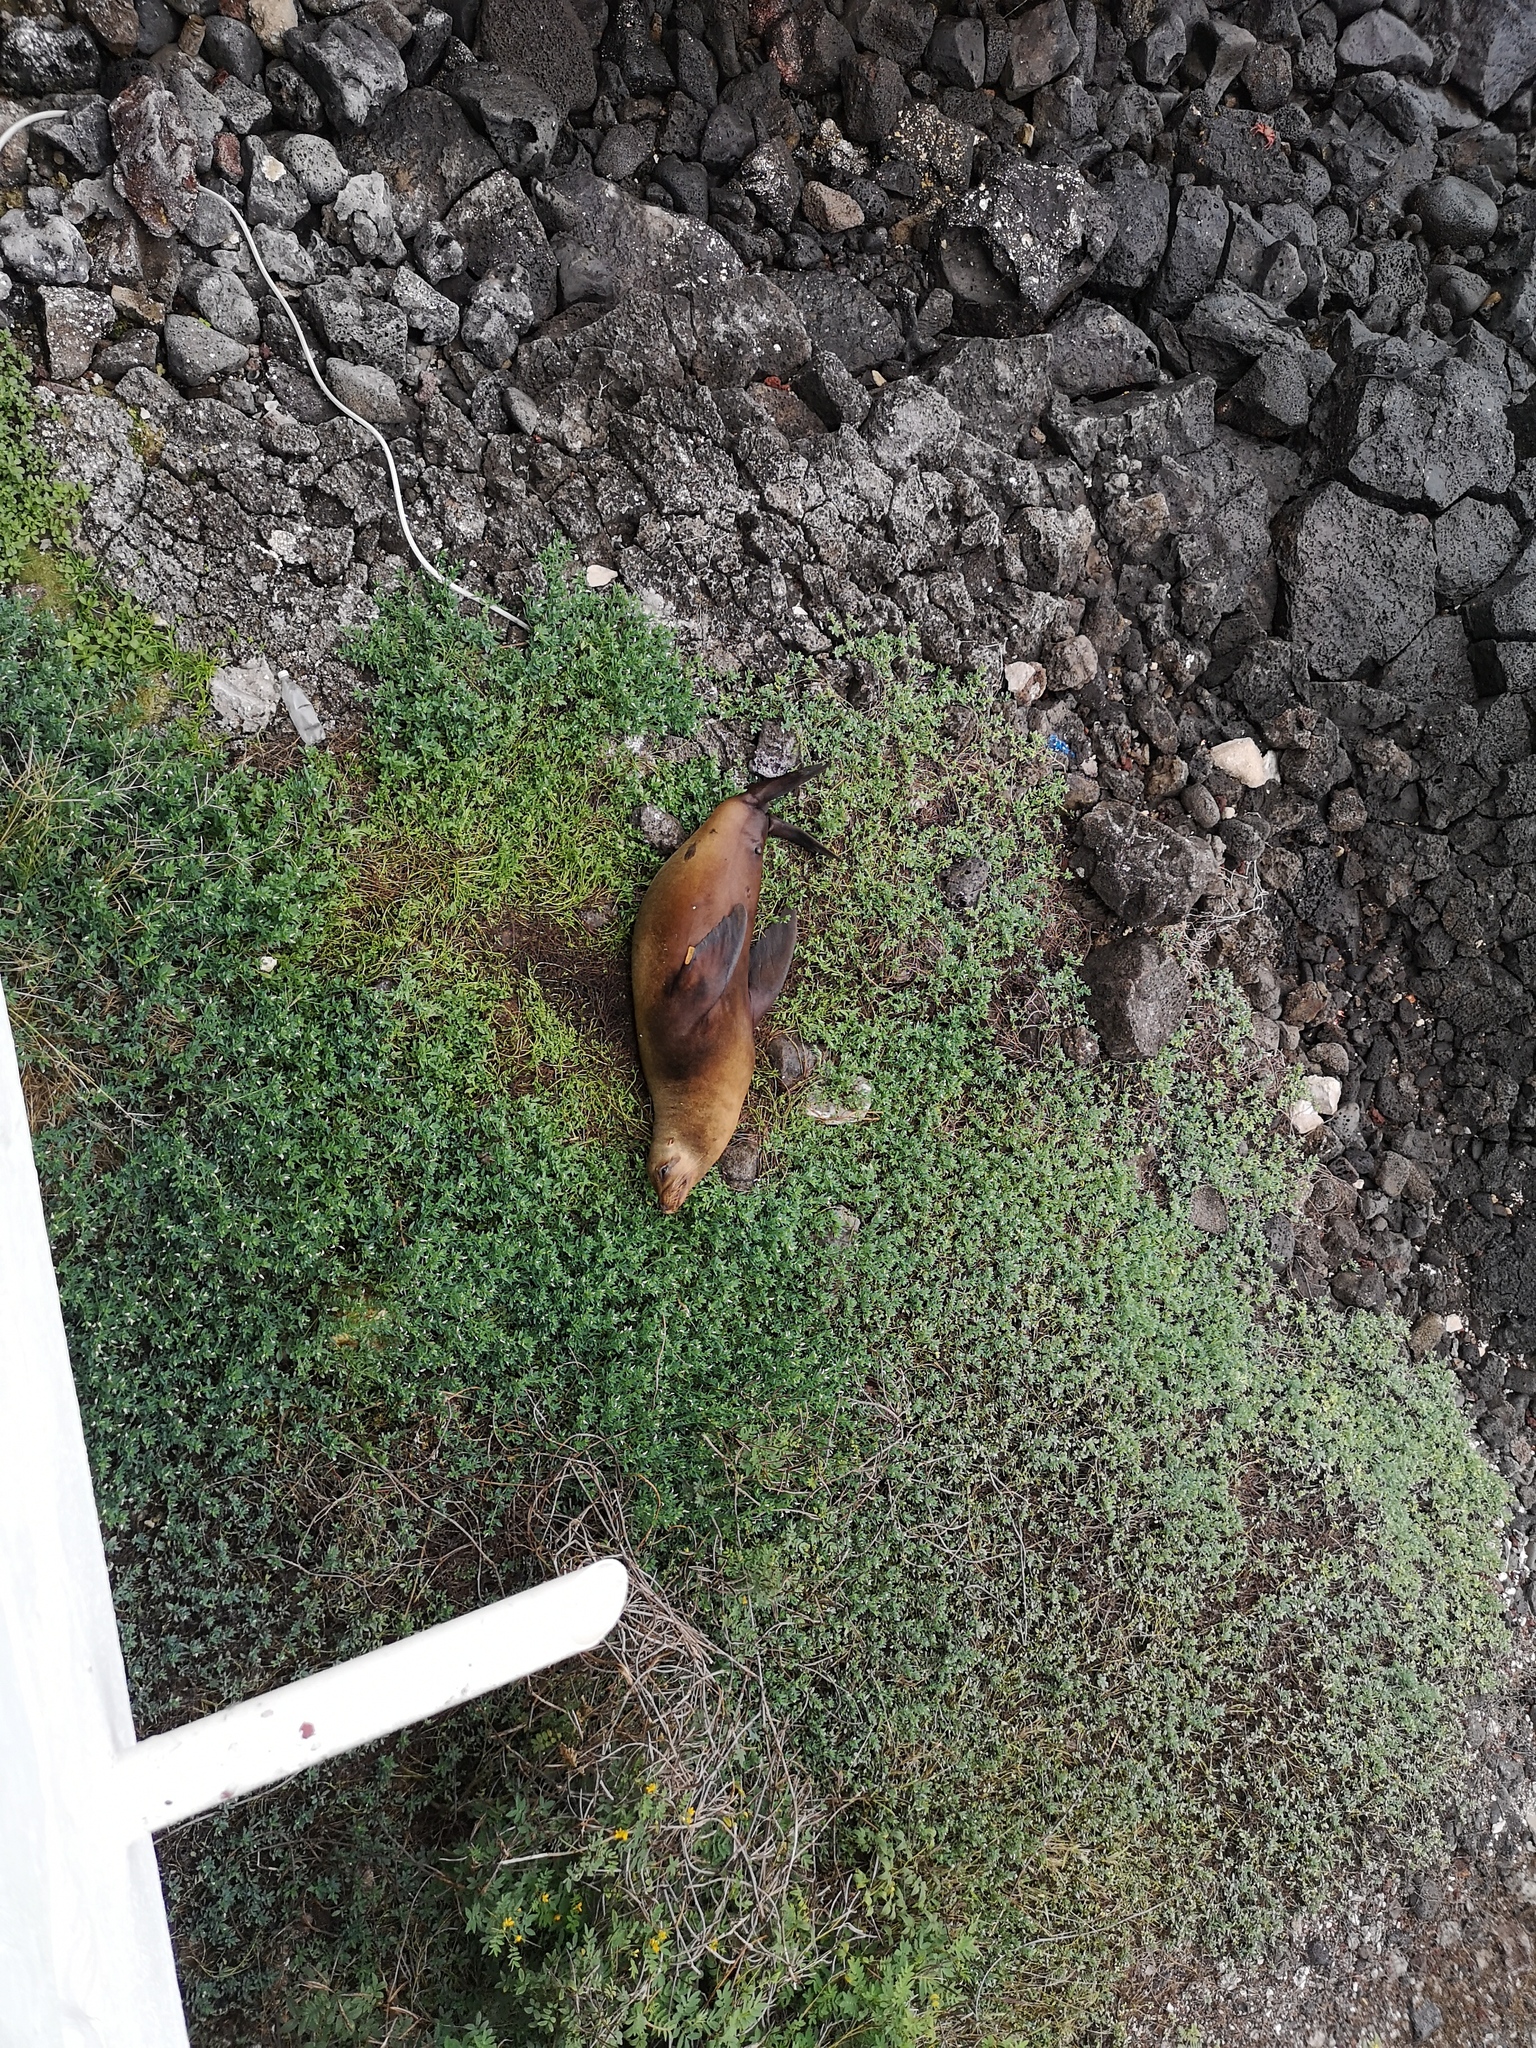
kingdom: Animalia
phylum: Chordata
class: Mammalia
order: Carnivora
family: Otariidae
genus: Zalophus
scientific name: Zalophus wollebaeki
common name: Galapagos sea lion
